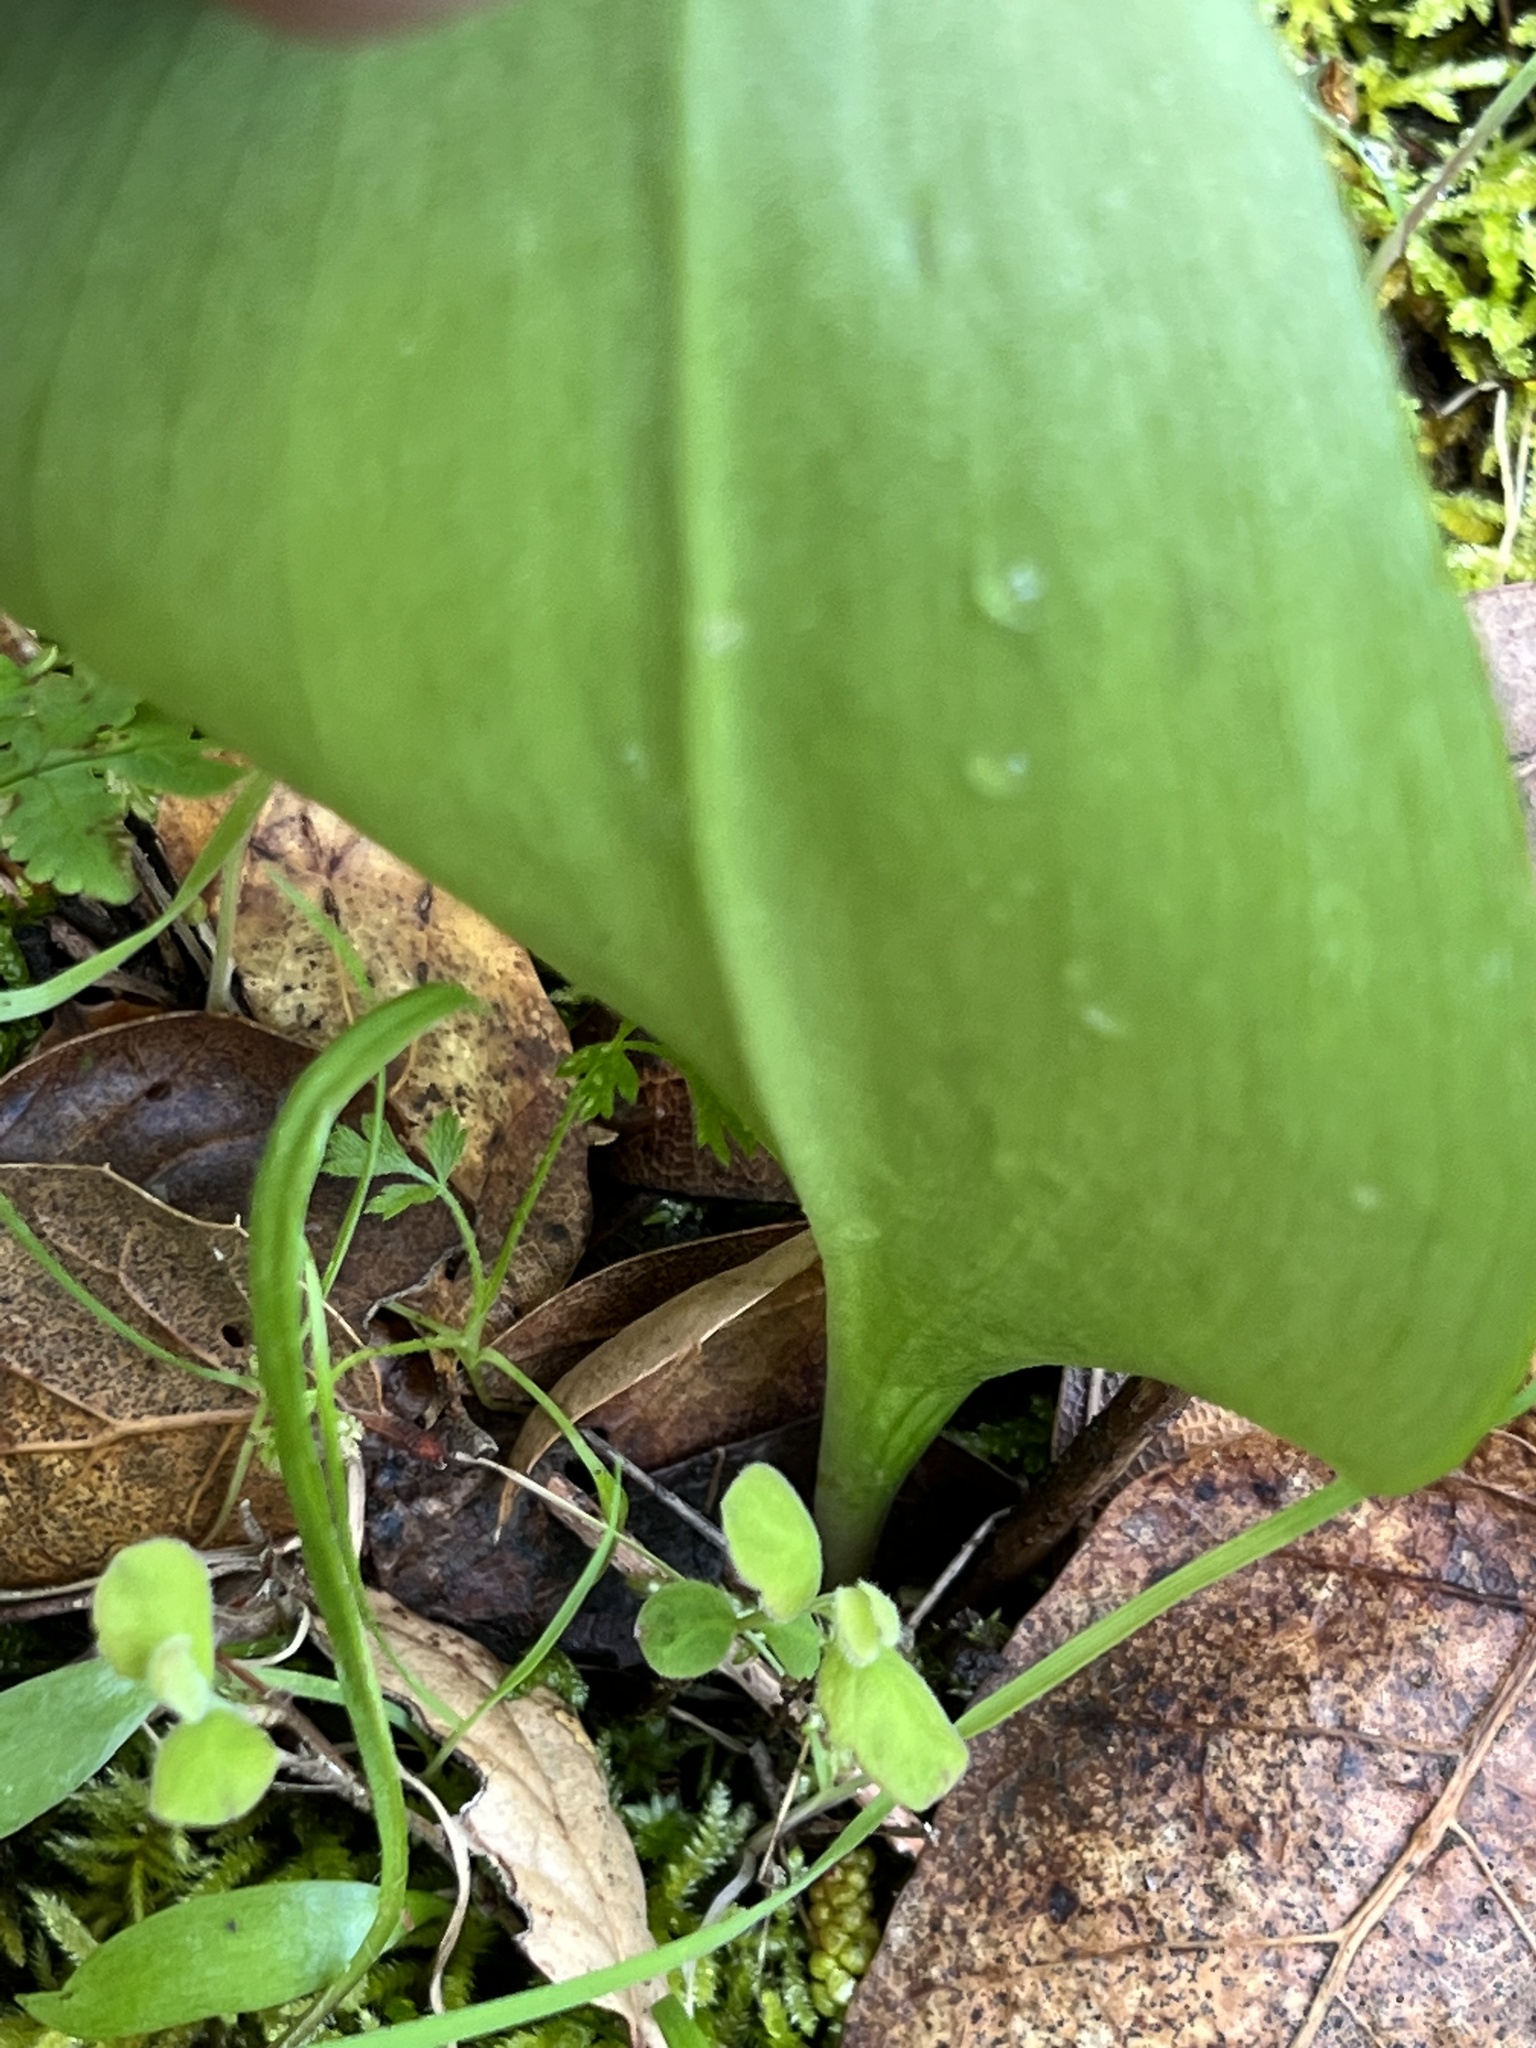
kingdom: Plantae
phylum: Tracheophyta
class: Liliopsida
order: Liliales
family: Liliaceae
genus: Fritillaria
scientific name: Fritillaria affinis
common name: Ojai fritillary
